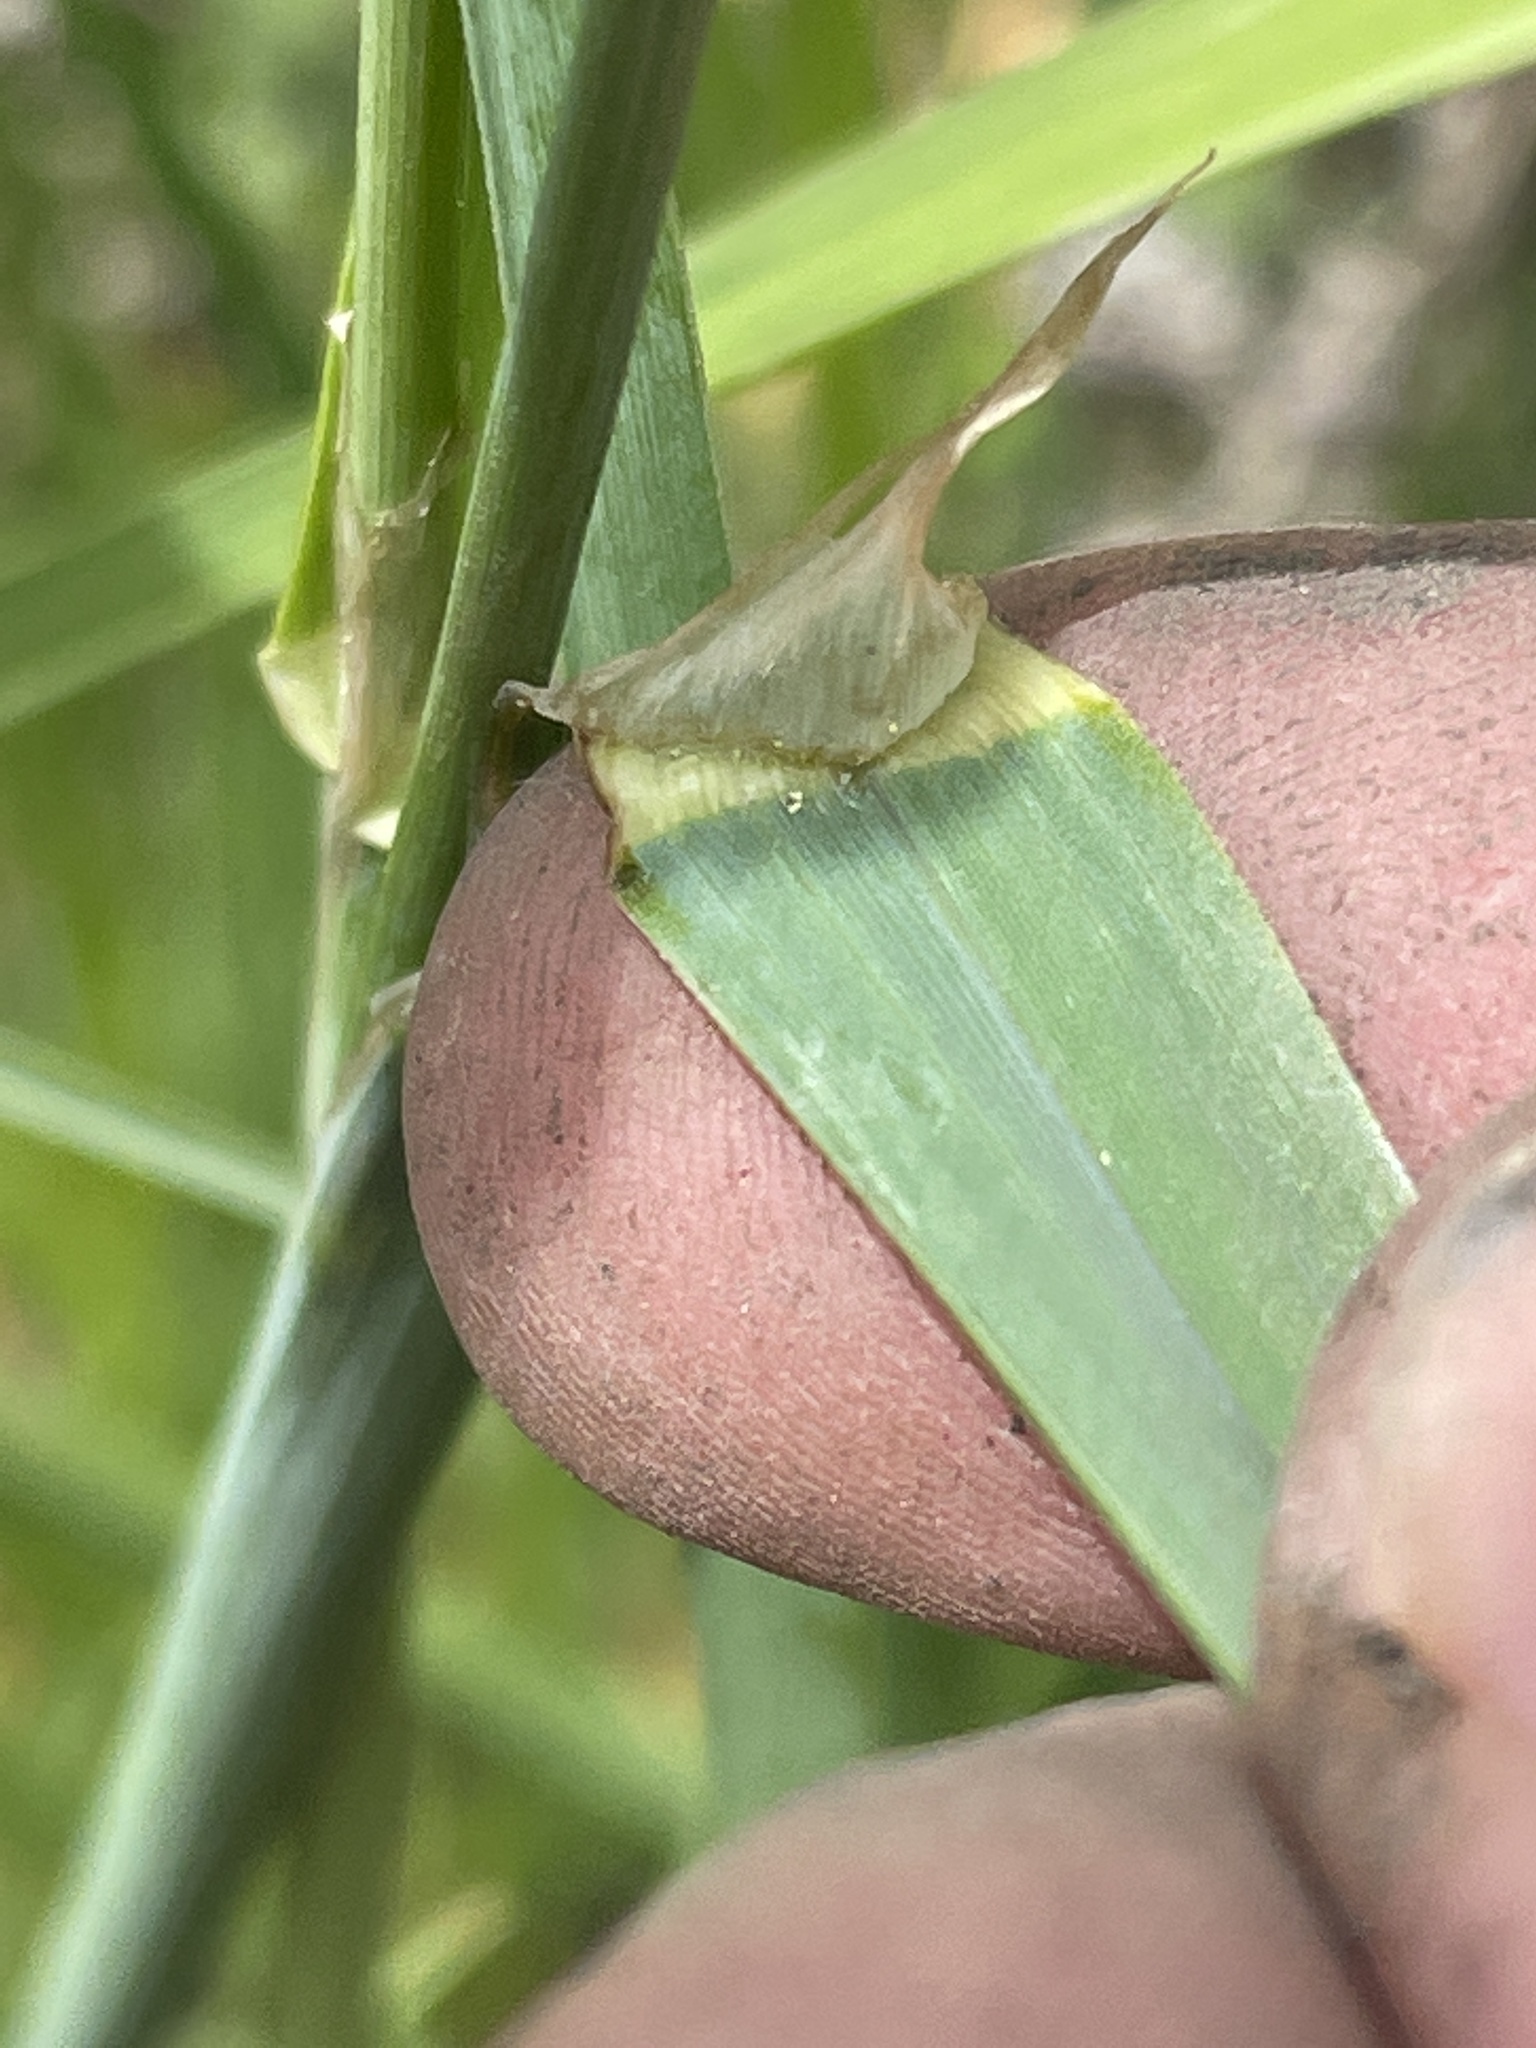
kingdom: Plantae
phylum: Tracheophyta
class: Liliopsida
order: Poales
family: Poaceae
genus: Dactylis
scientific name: Dactylis glomerata
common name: Orchardgrass
